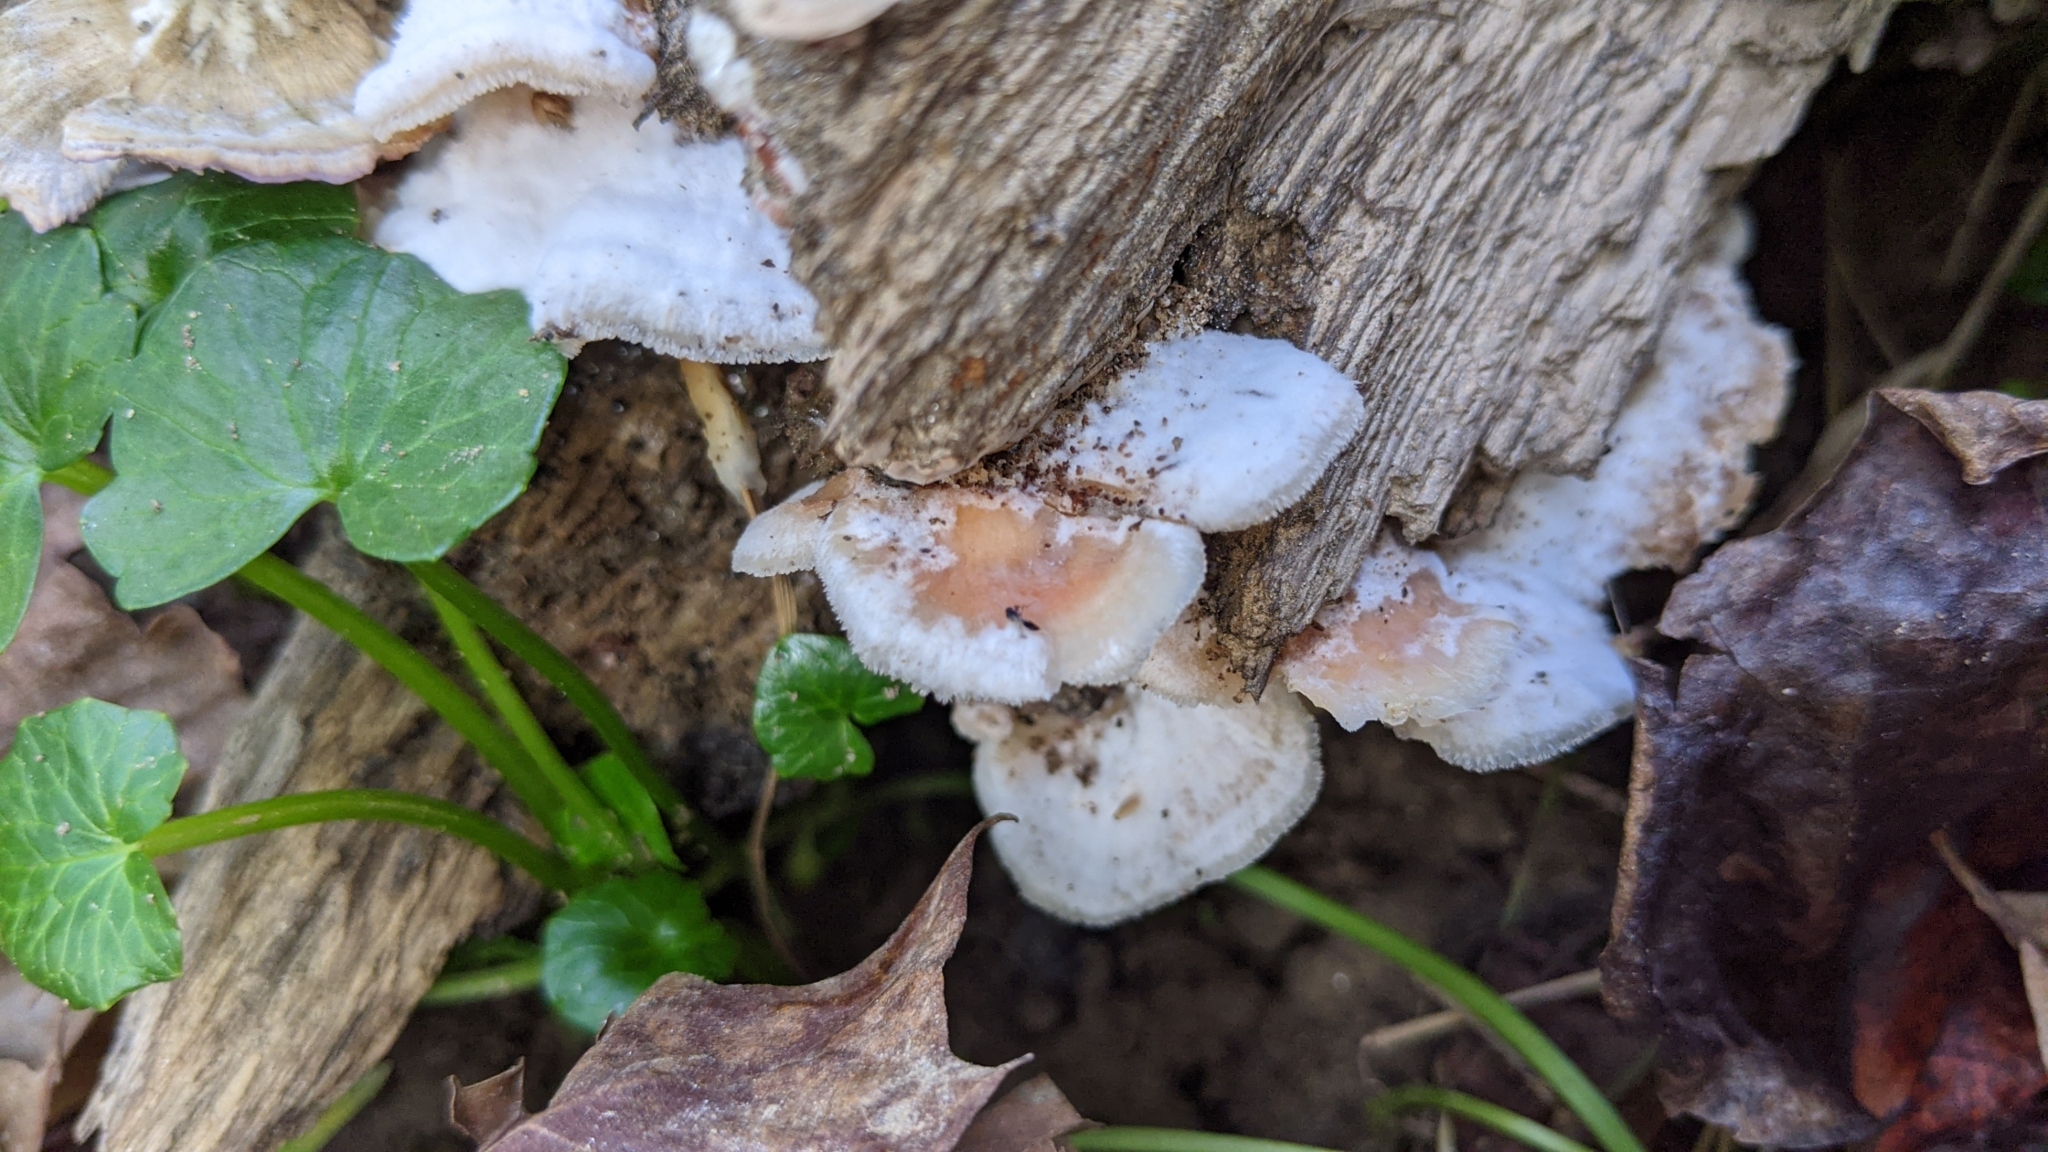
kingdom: Fungi
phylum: Basidiomycota
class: Agaricomycetes
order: Polyporales
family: Meruliaceae
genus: Phlebia
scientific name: Phlebia tremellosa
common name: Jelly rot
